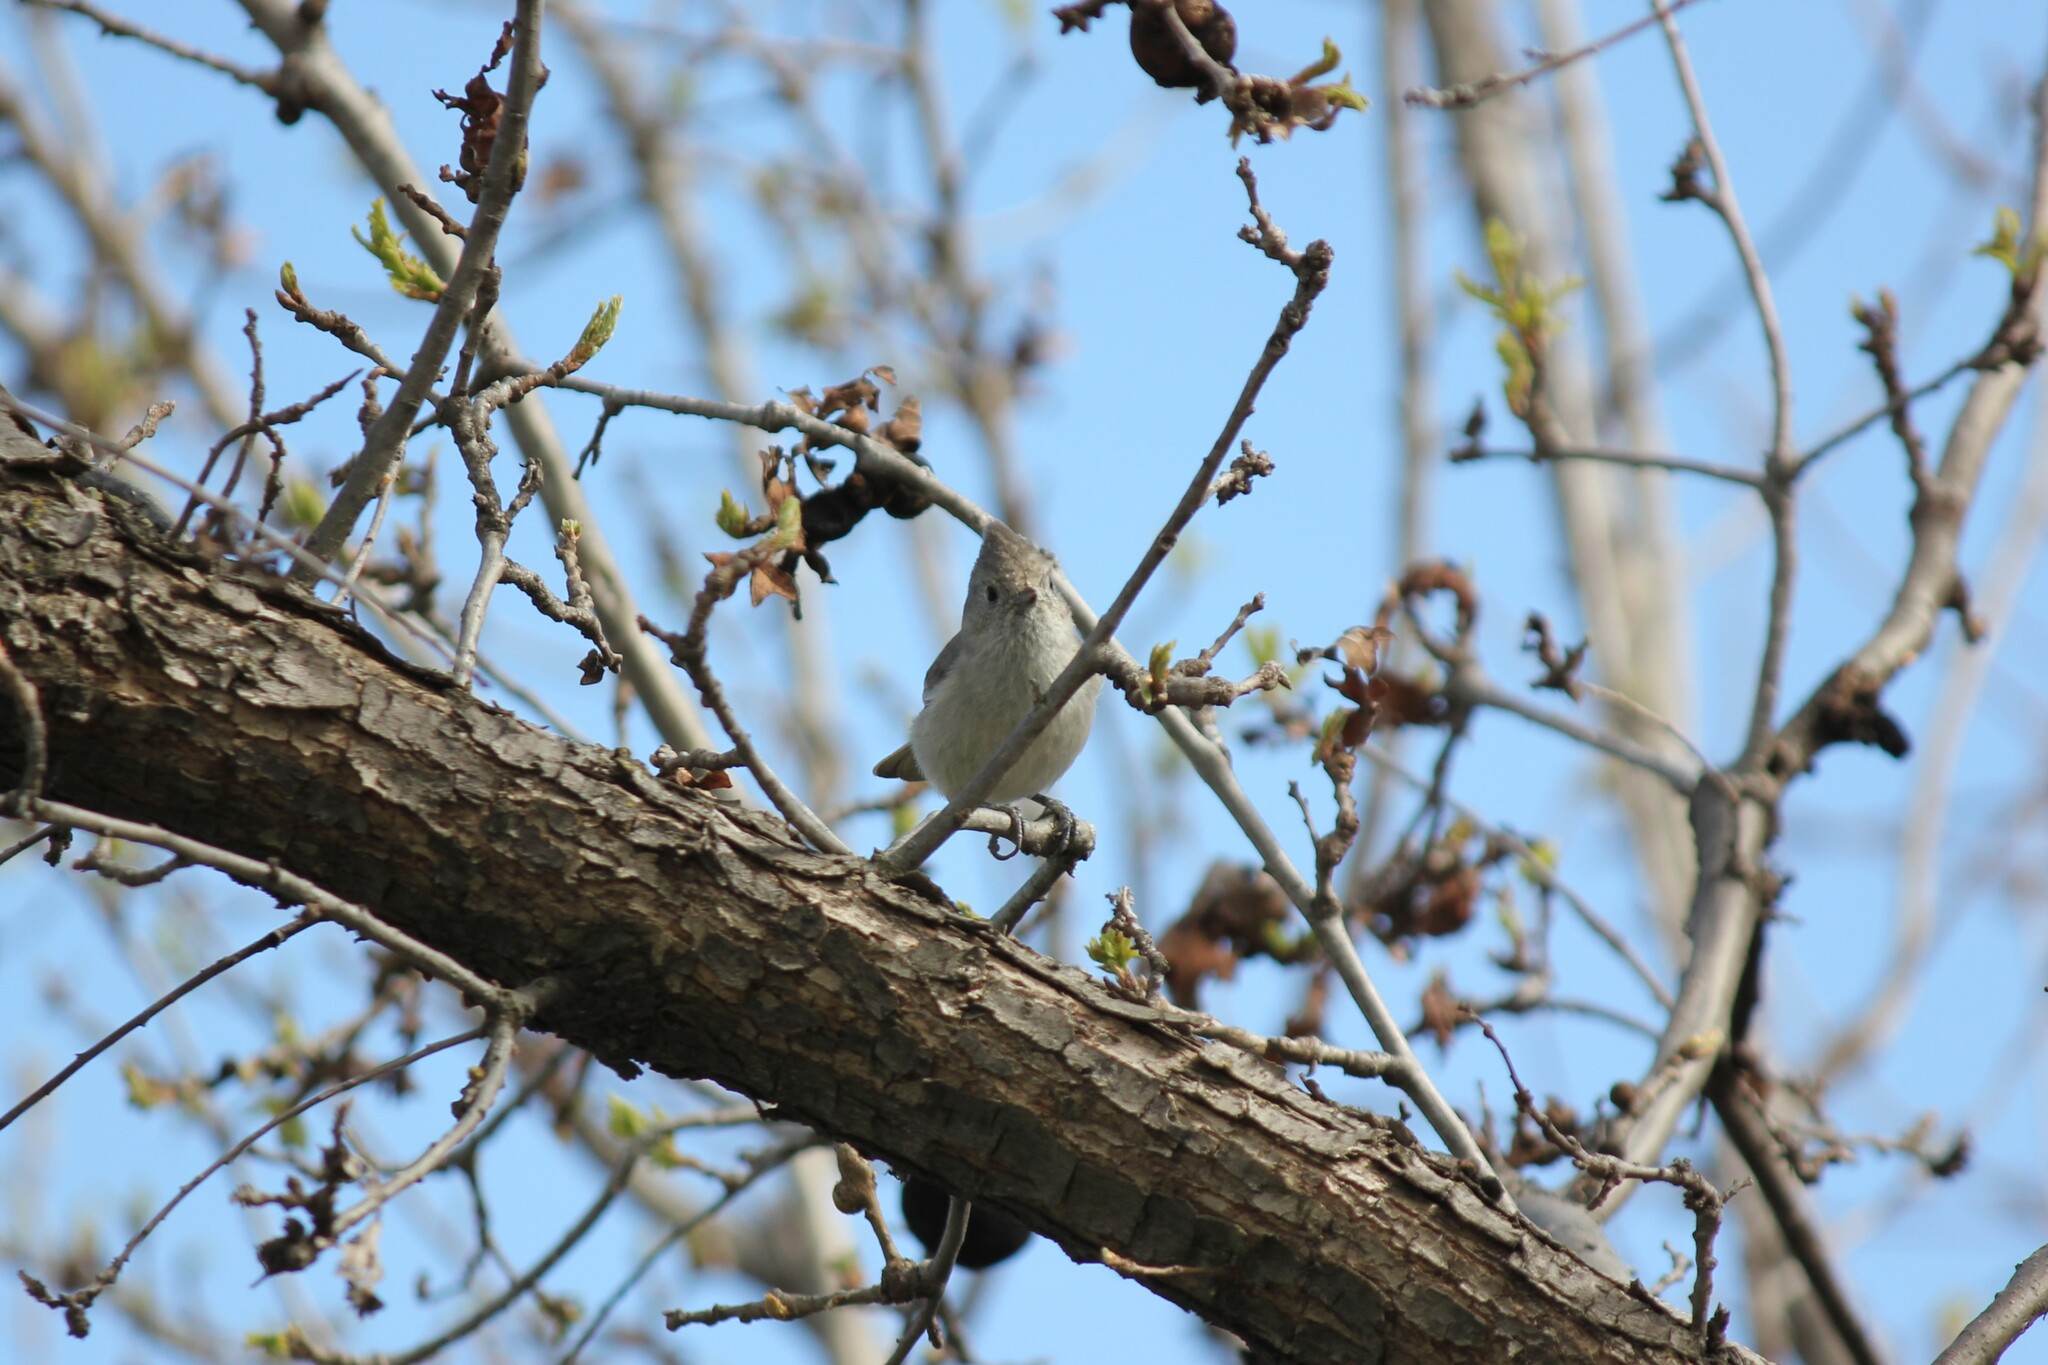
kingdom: Animalia
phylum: Chordata
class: Aves
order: Passeriformes
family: Paridae
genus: Baeolophus
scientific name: Baeolophus inornatus
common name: Oak titmouse
